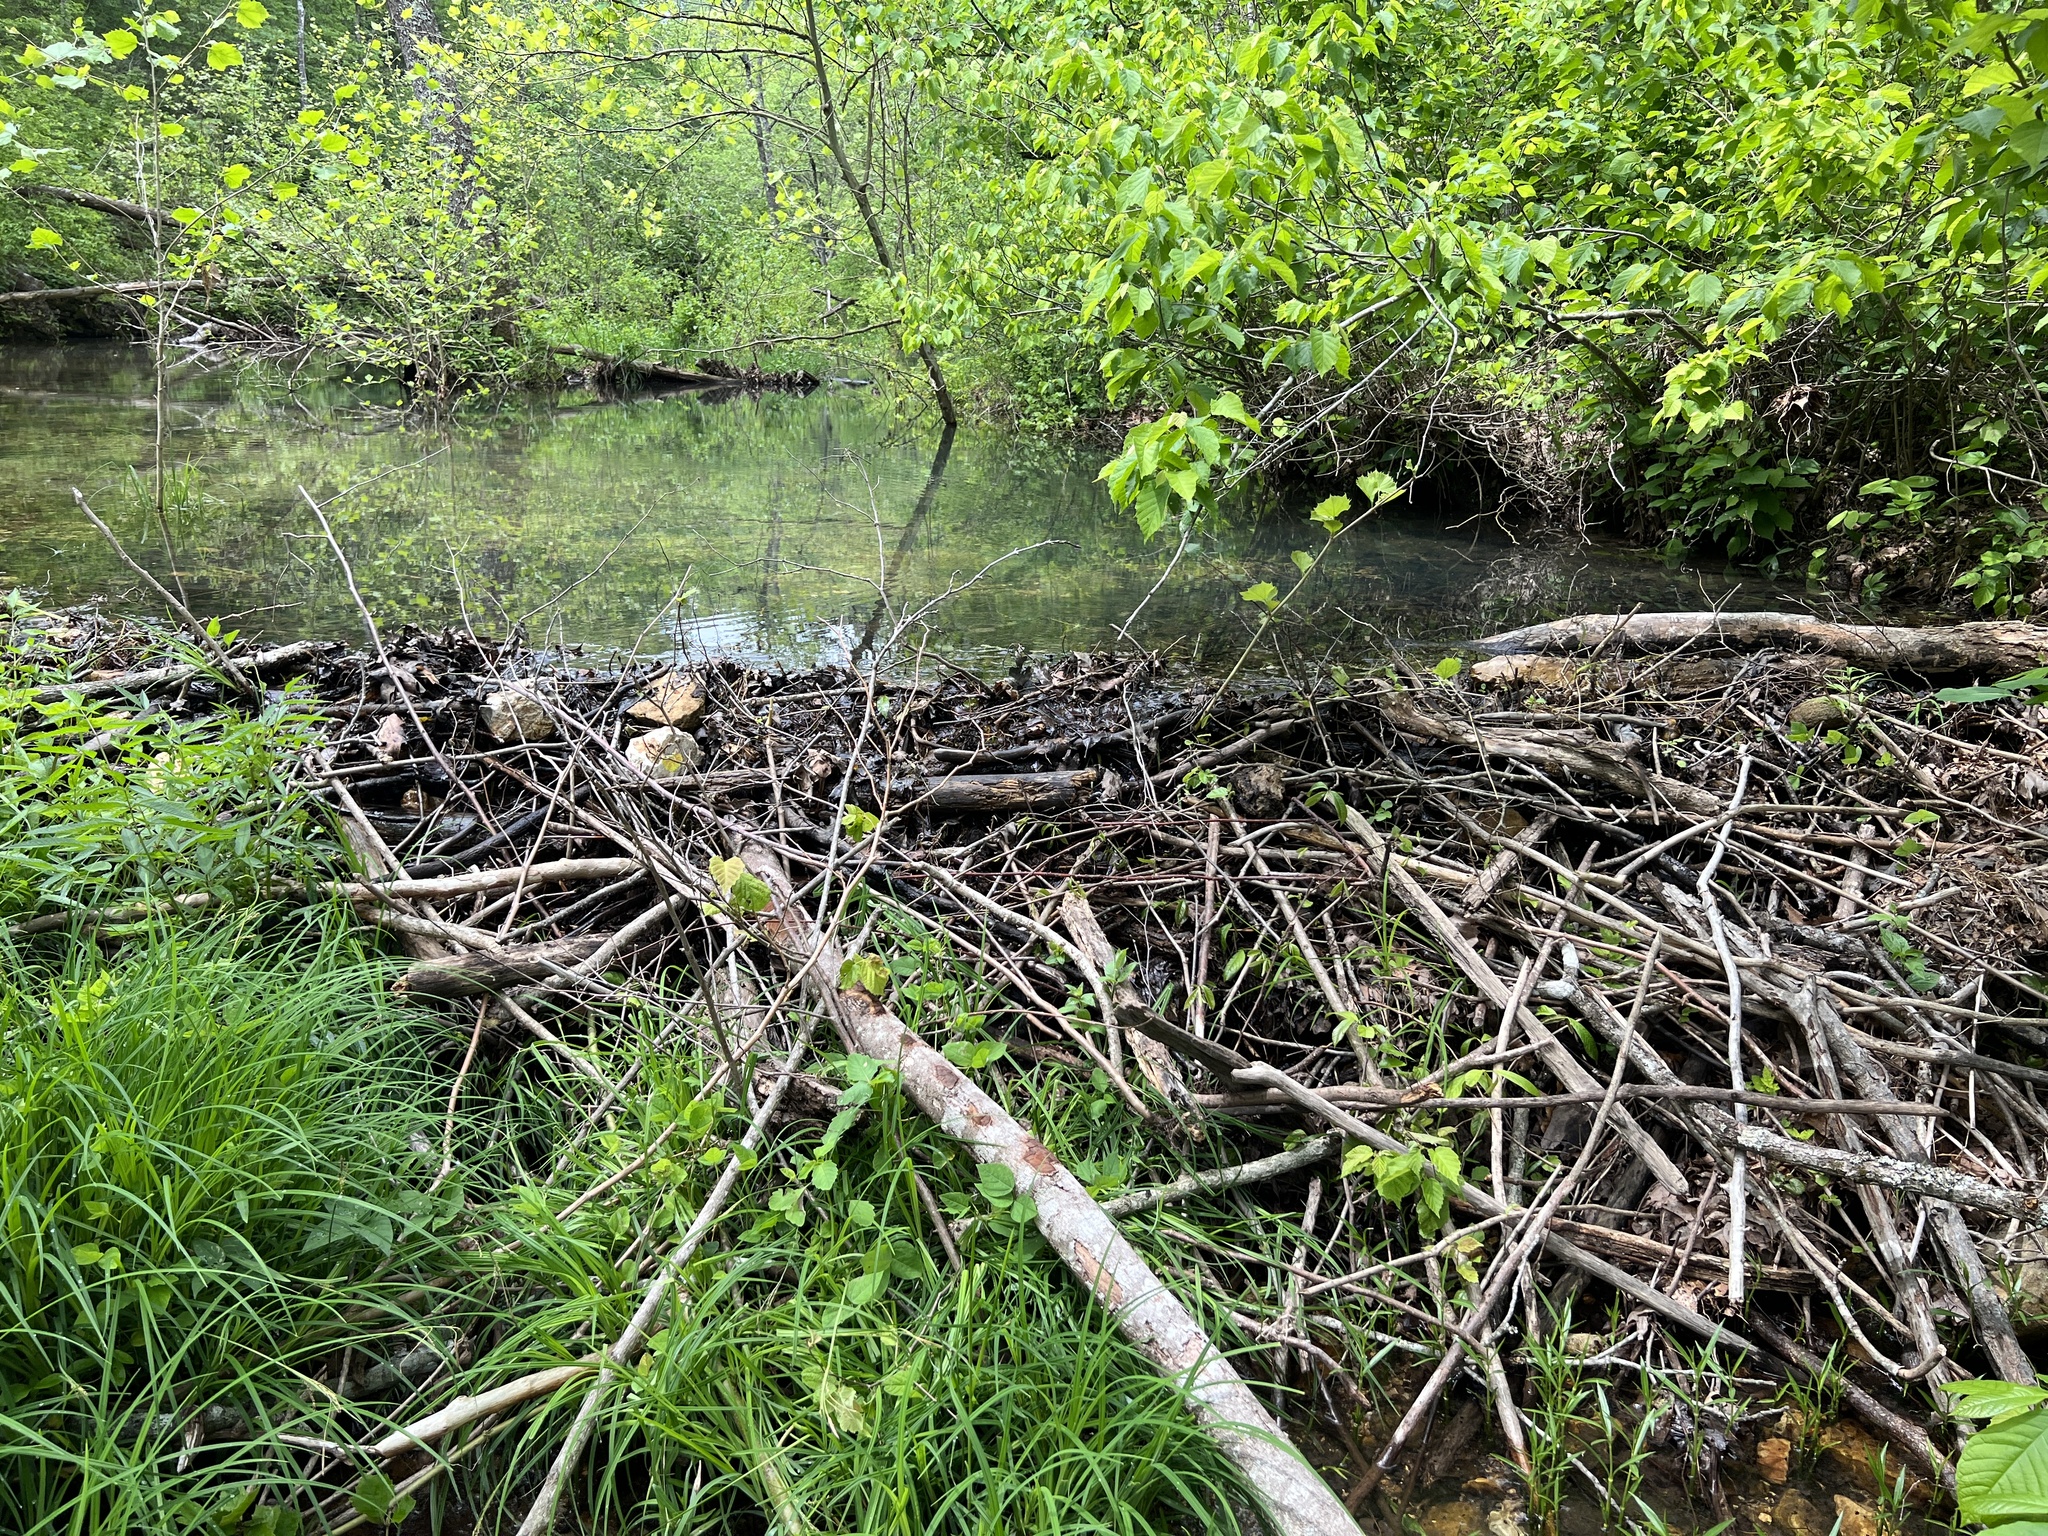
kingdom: Animalia
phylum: Chordata
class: Mammalia
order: Rodentia
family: Castoridae
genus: Castor
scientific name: Castor canadensis
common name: American beaver
